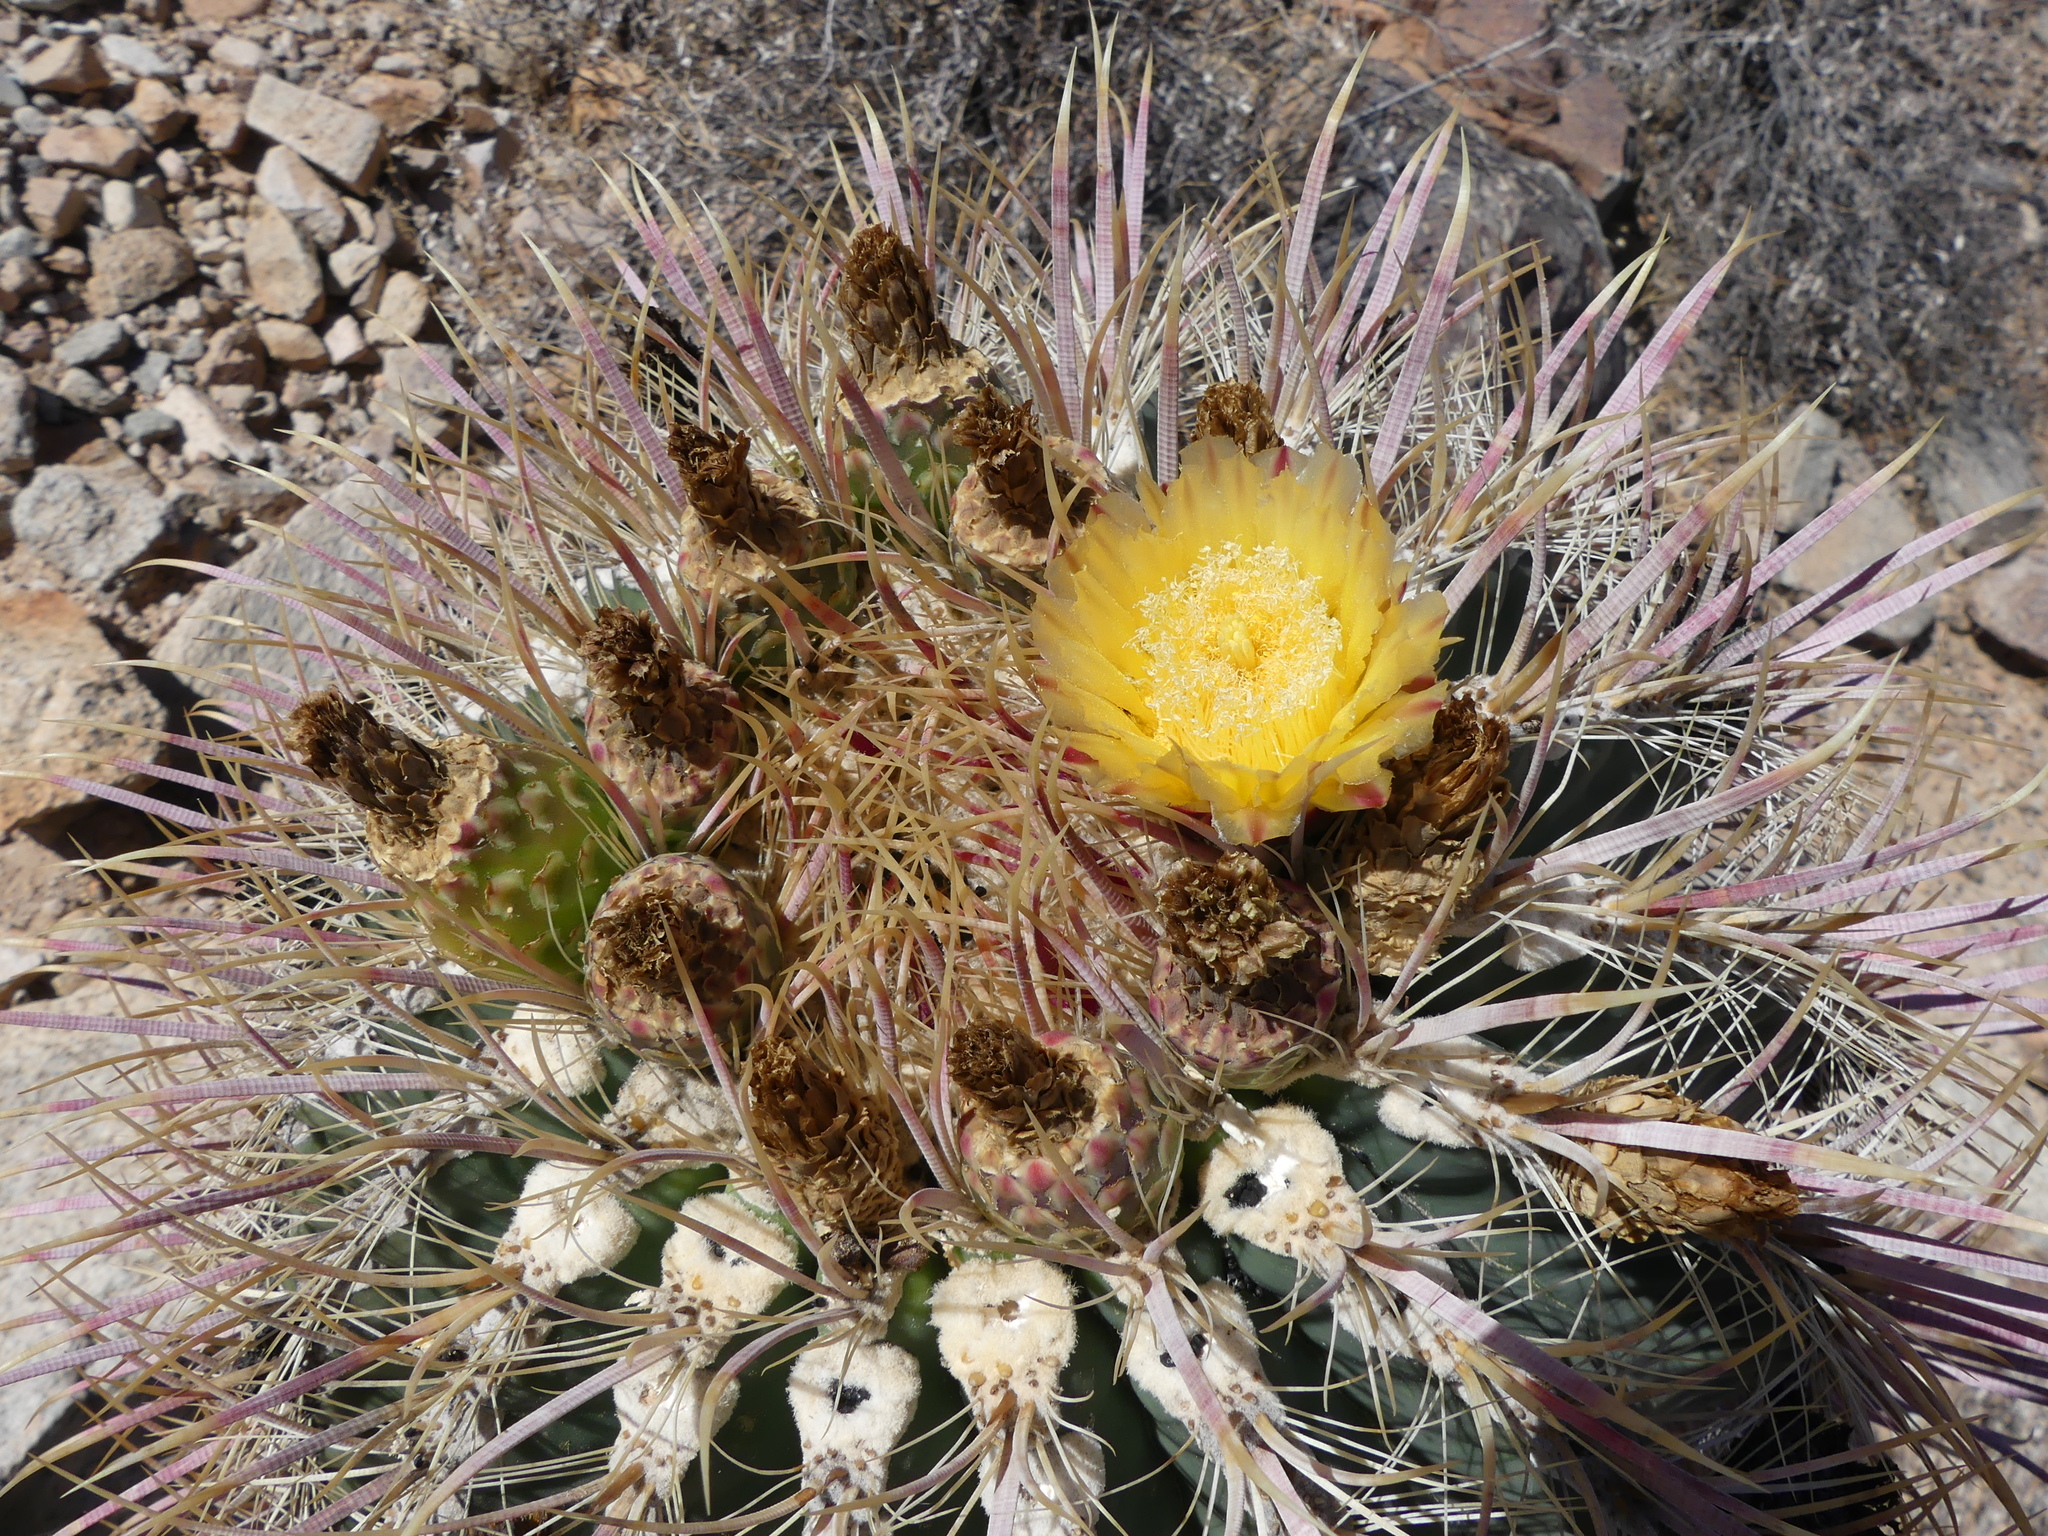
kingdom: Plantae
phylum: Tracheophyta
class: Magnoliopsida
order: Caryophyllales
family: Cactaceae
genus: Ferocactus
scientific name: Ferocactus cylindraceus
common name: California barrel cactus
